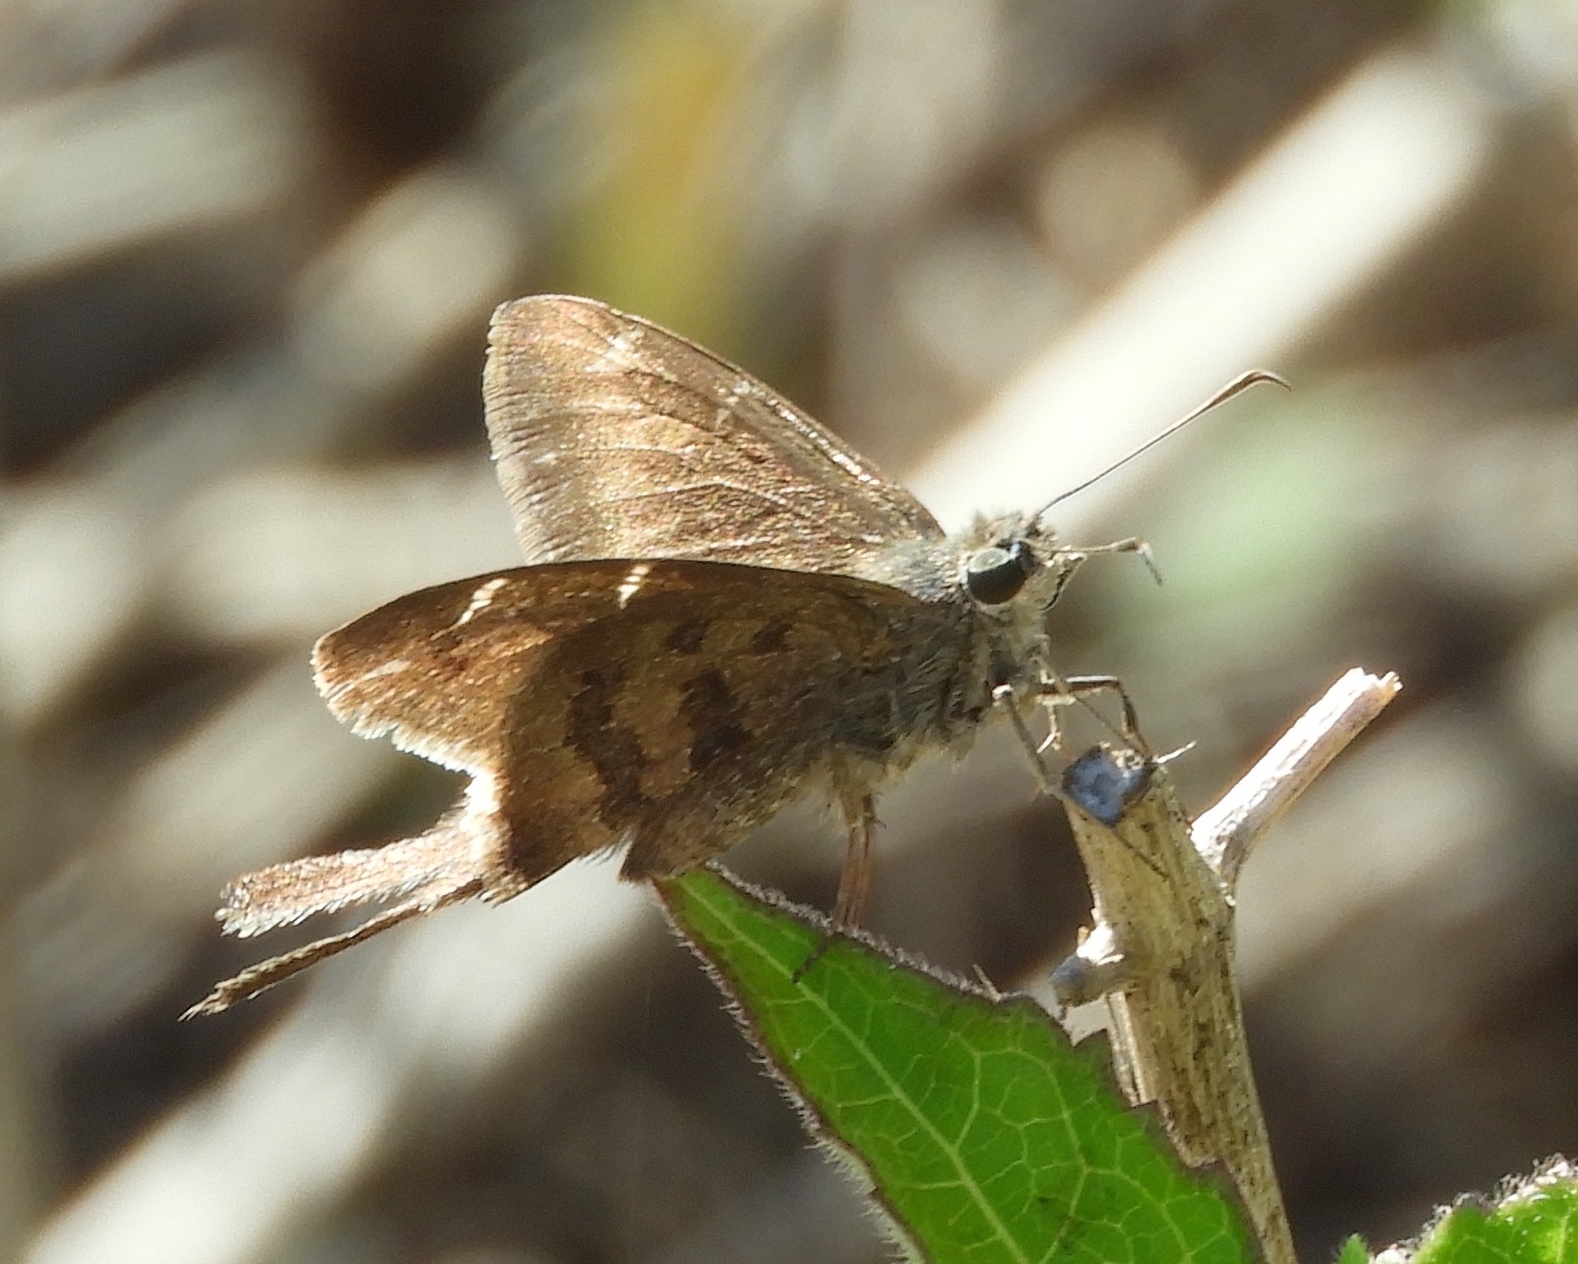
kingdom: Animalia
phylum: Arthropoda
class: Insecta
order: Lepidoptera
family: Hesperiidae
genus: Urbanus
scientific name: Urbanus procne
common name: Brown longtail
